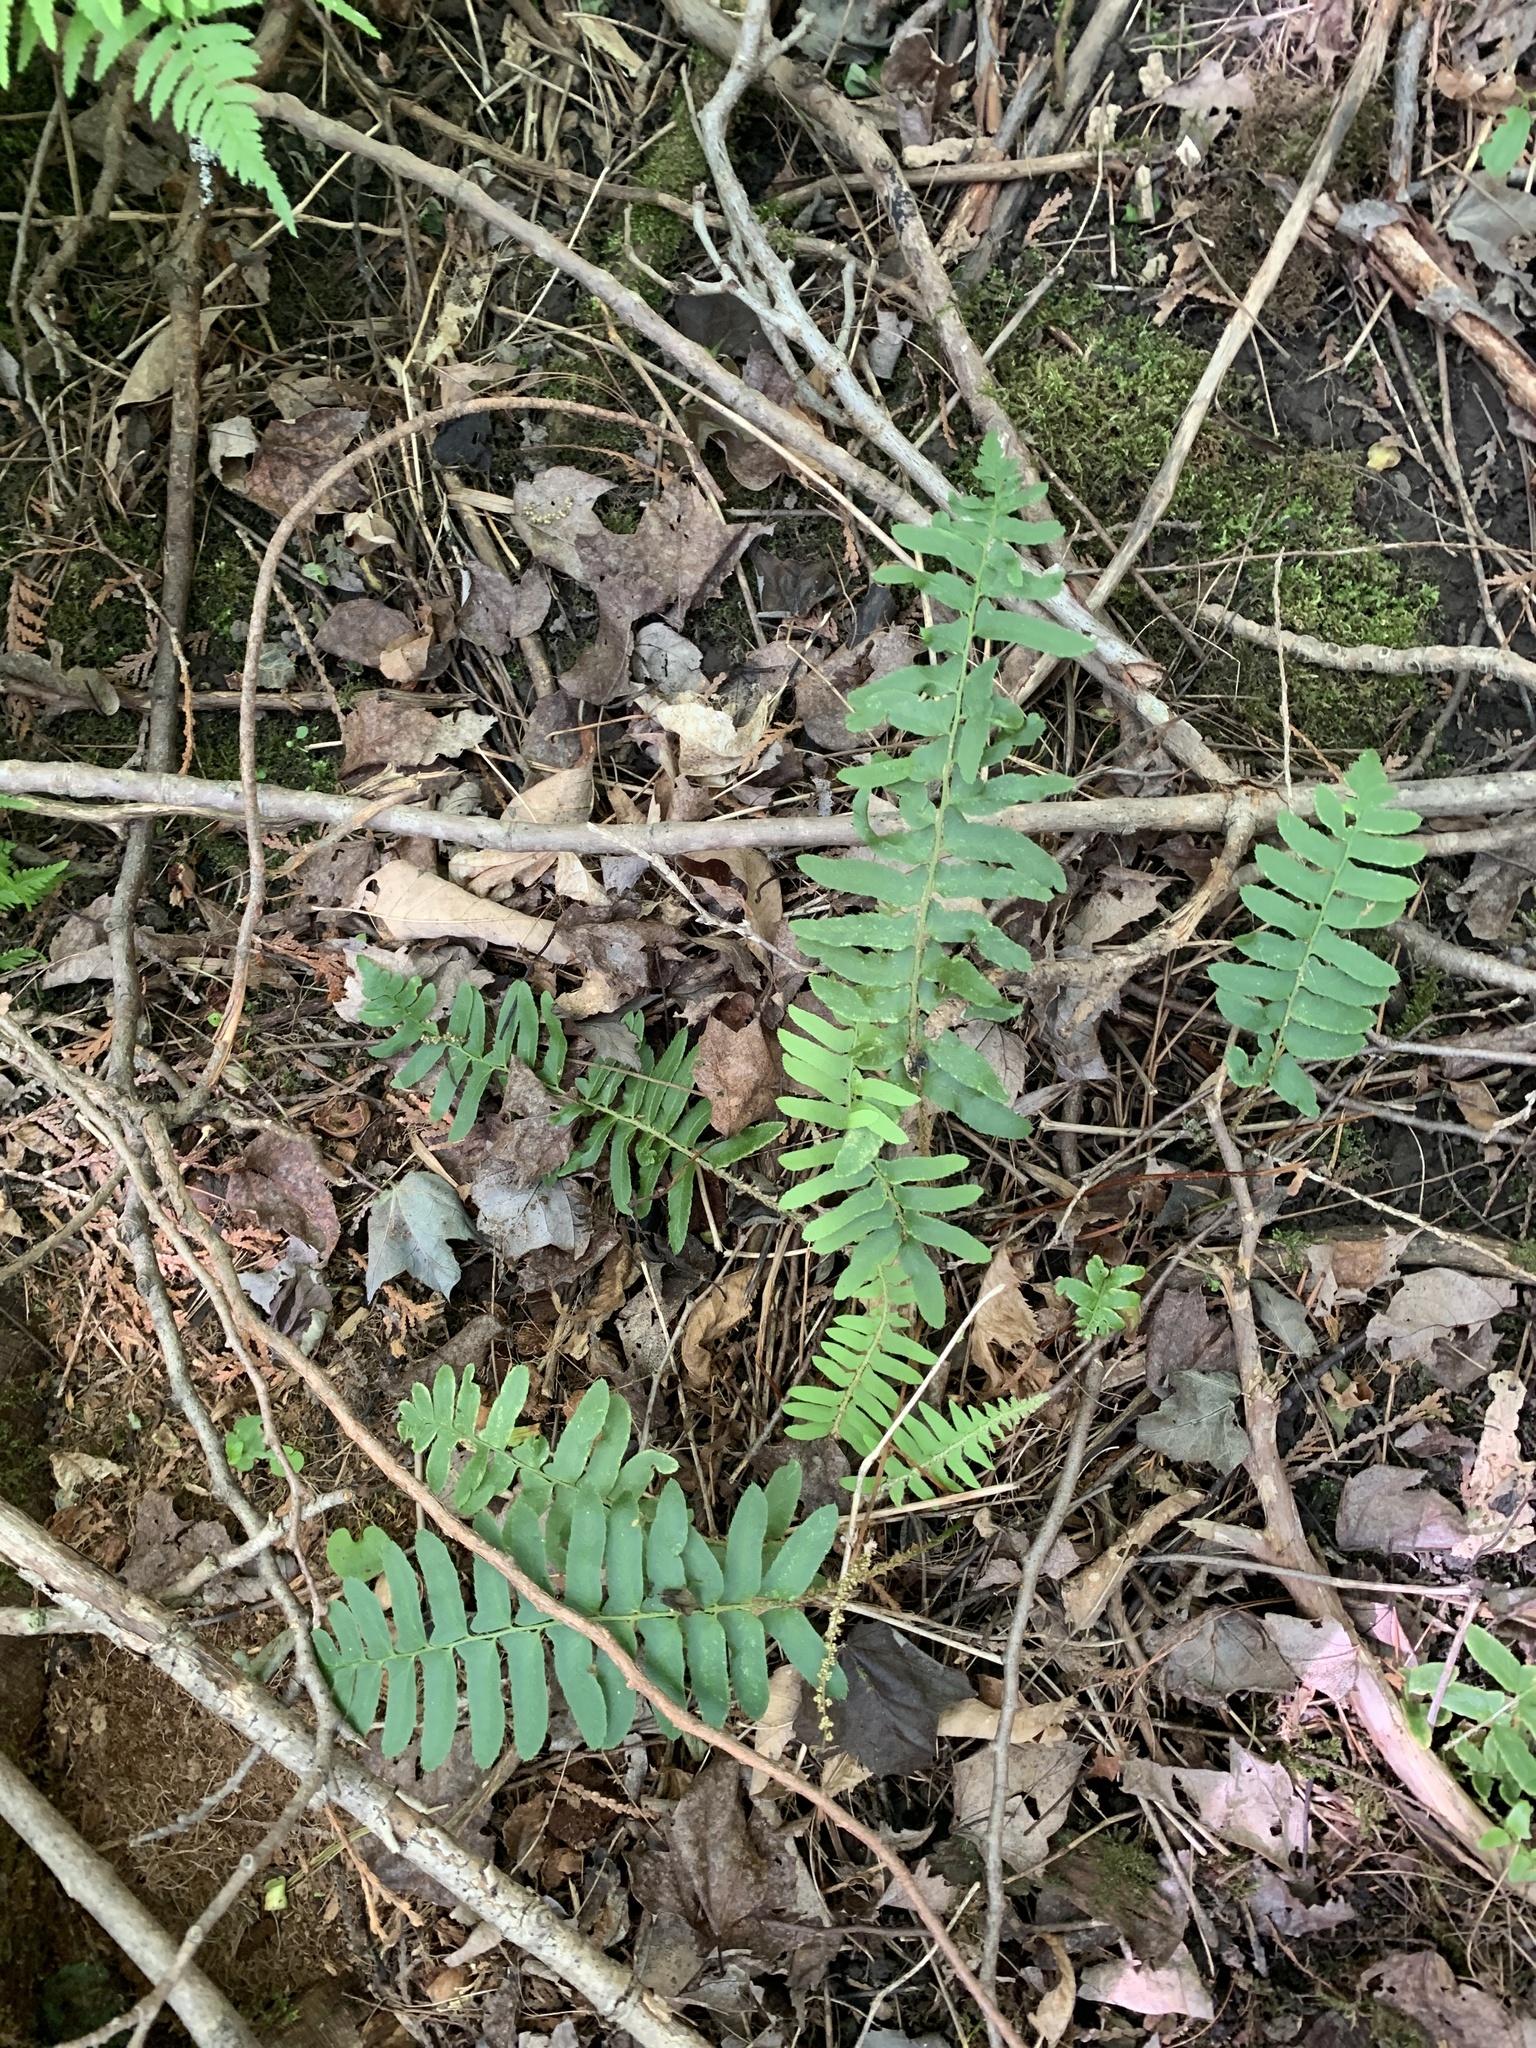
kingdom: Plantae
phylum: Tracheophyta
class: Polypodiopsida
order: Polypodiales
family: Dryopteridaceae
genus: Polystichum
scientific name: Polystichum acrostichoides
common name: Christmas fern
